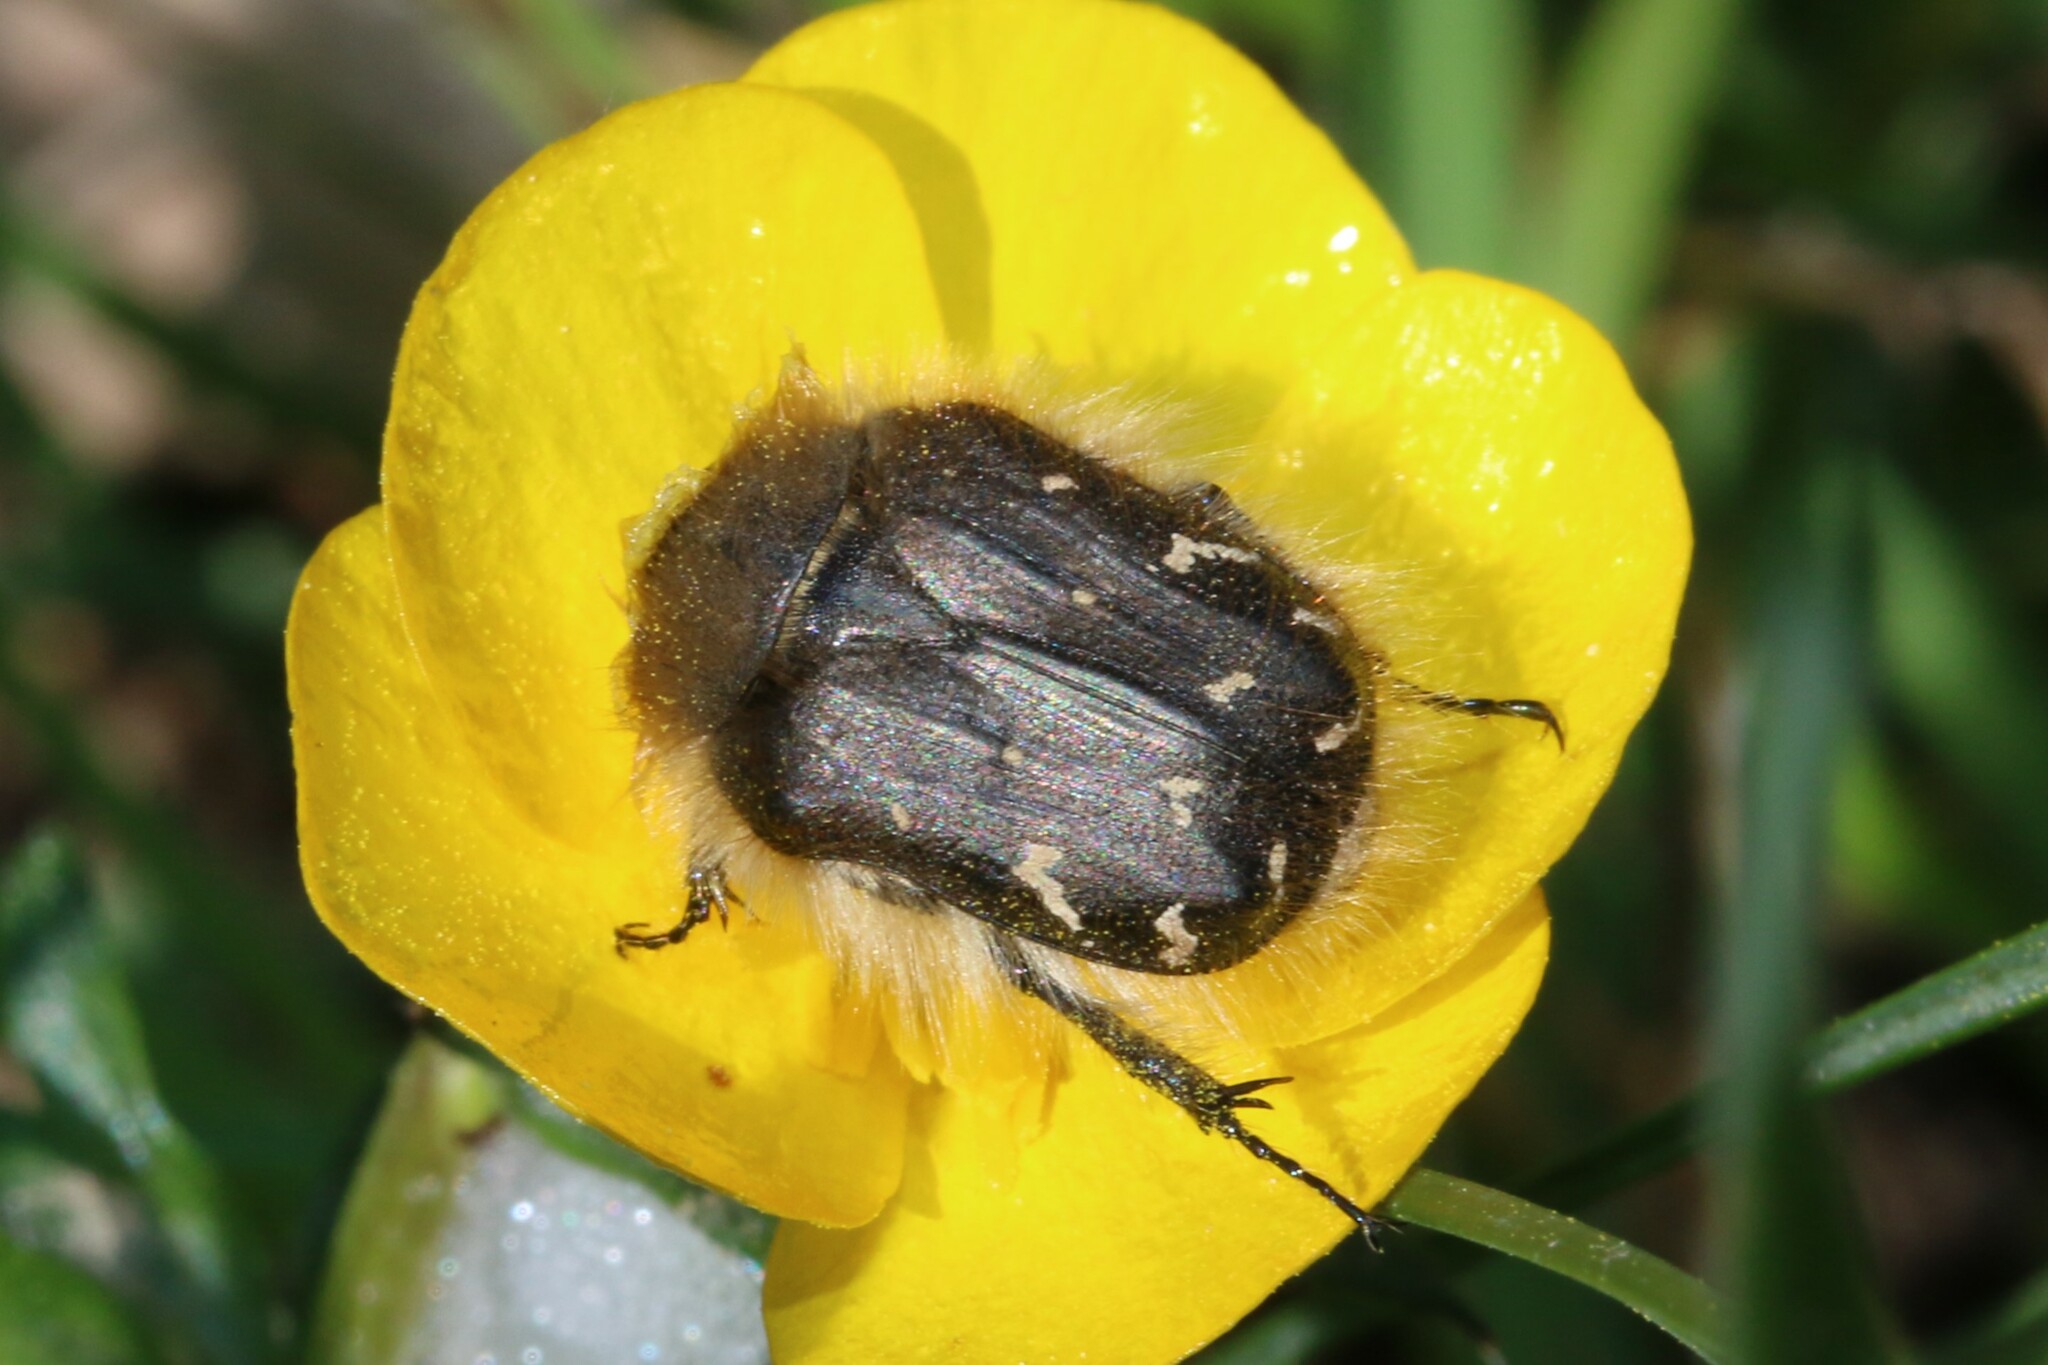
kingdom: Animalia
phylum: Arthropoda
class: Insecta
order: Coleoptera
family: Scarabaeidae
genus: Tropinota
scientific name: Tropinota hirta
